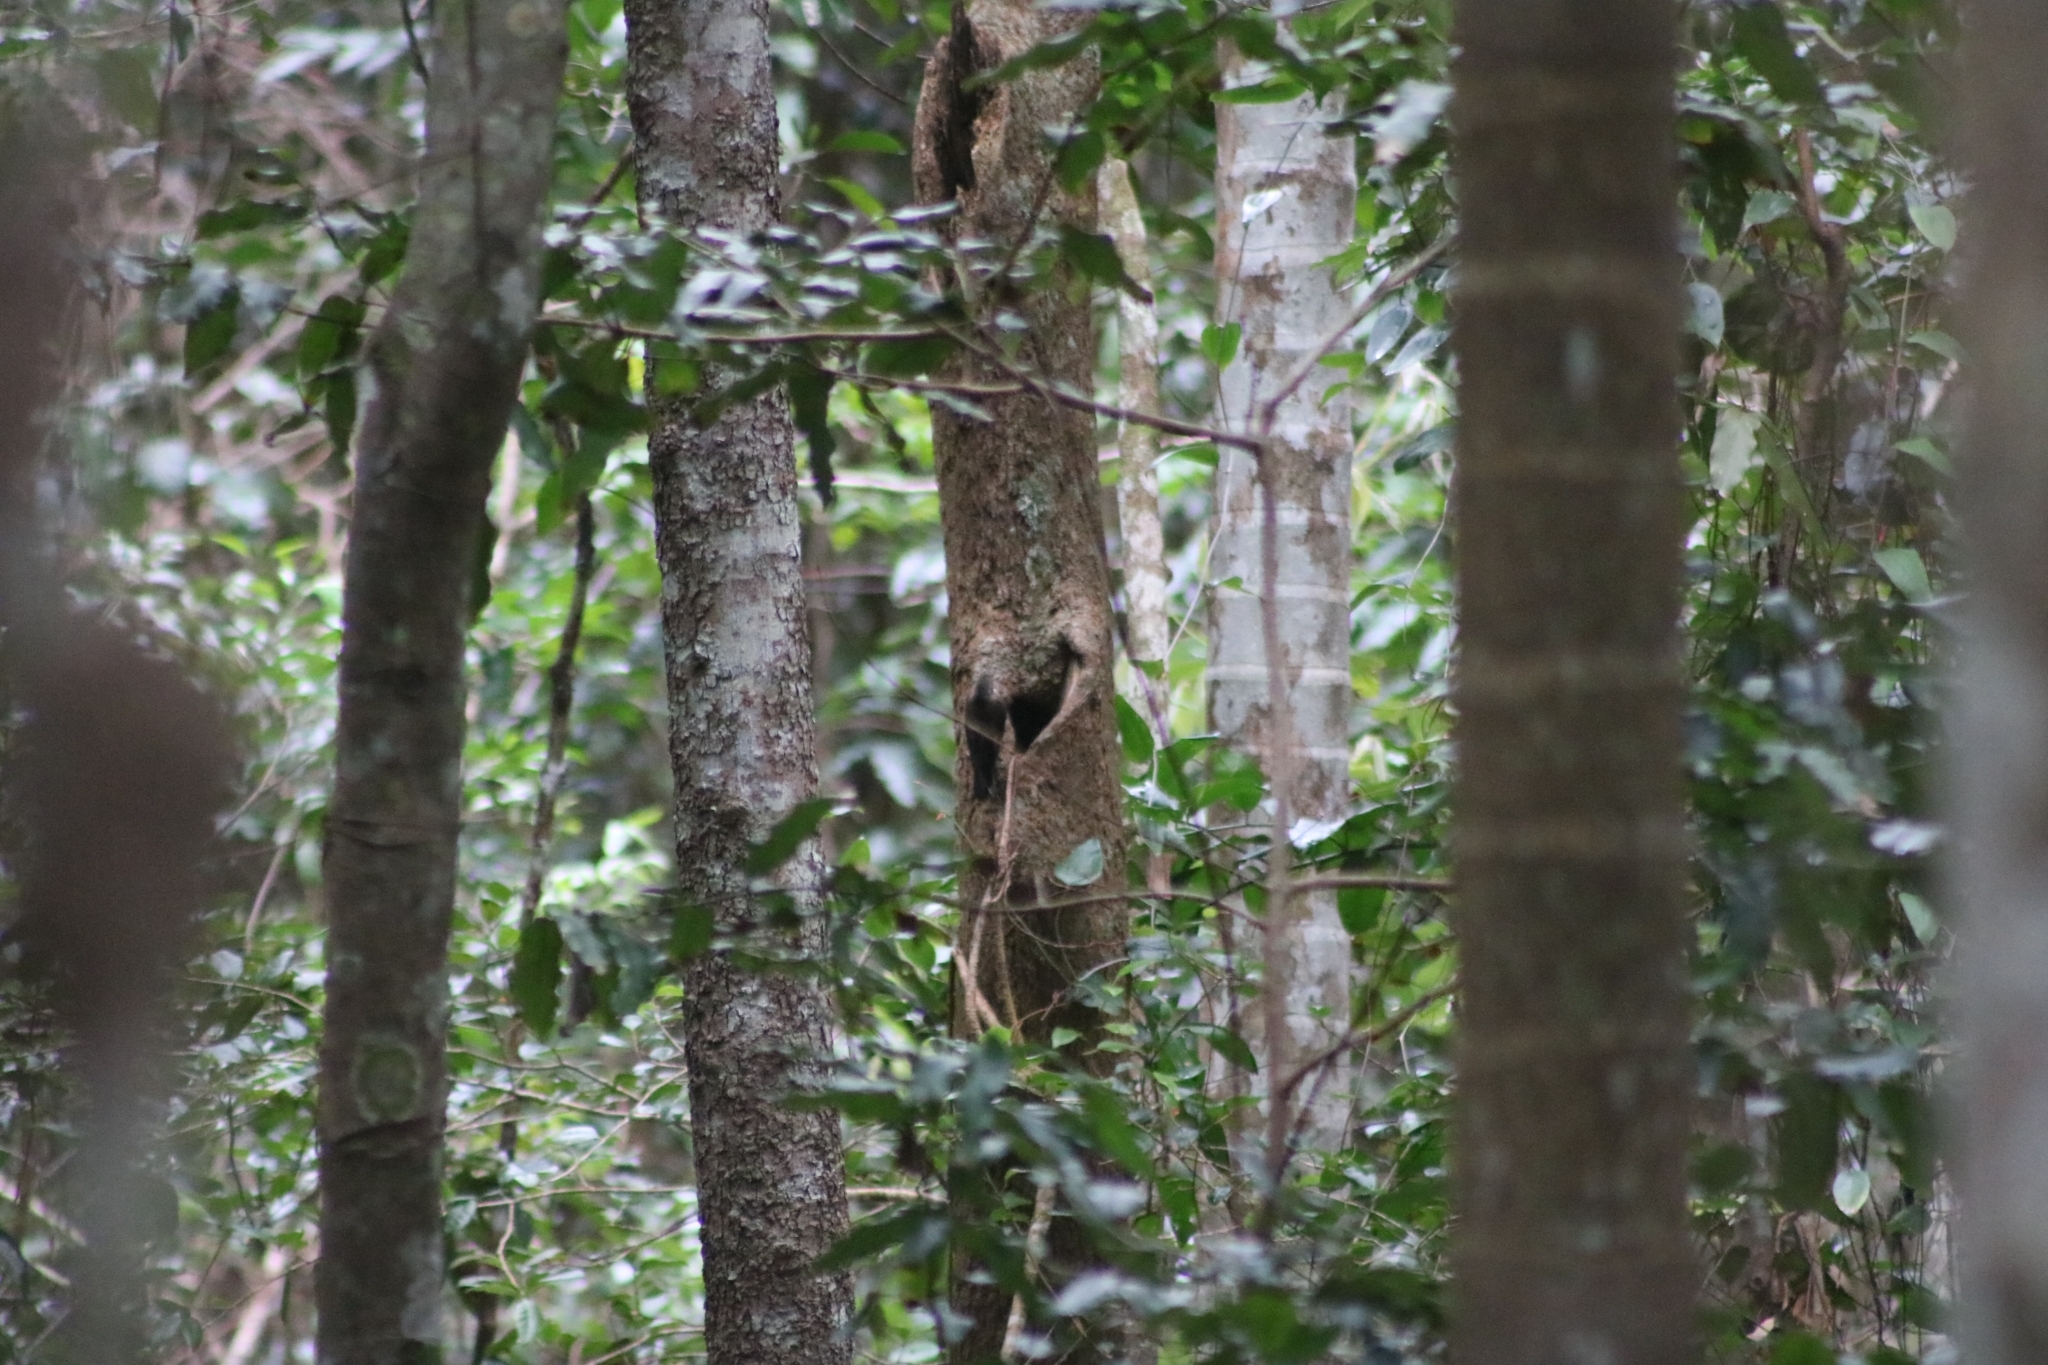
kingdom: Animalia
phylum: Chordata
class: Aves
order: Passeriformes
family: Climacteridae
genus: Cormobates
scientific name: Cormobates leucophaea
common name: White-throated treecreeper
